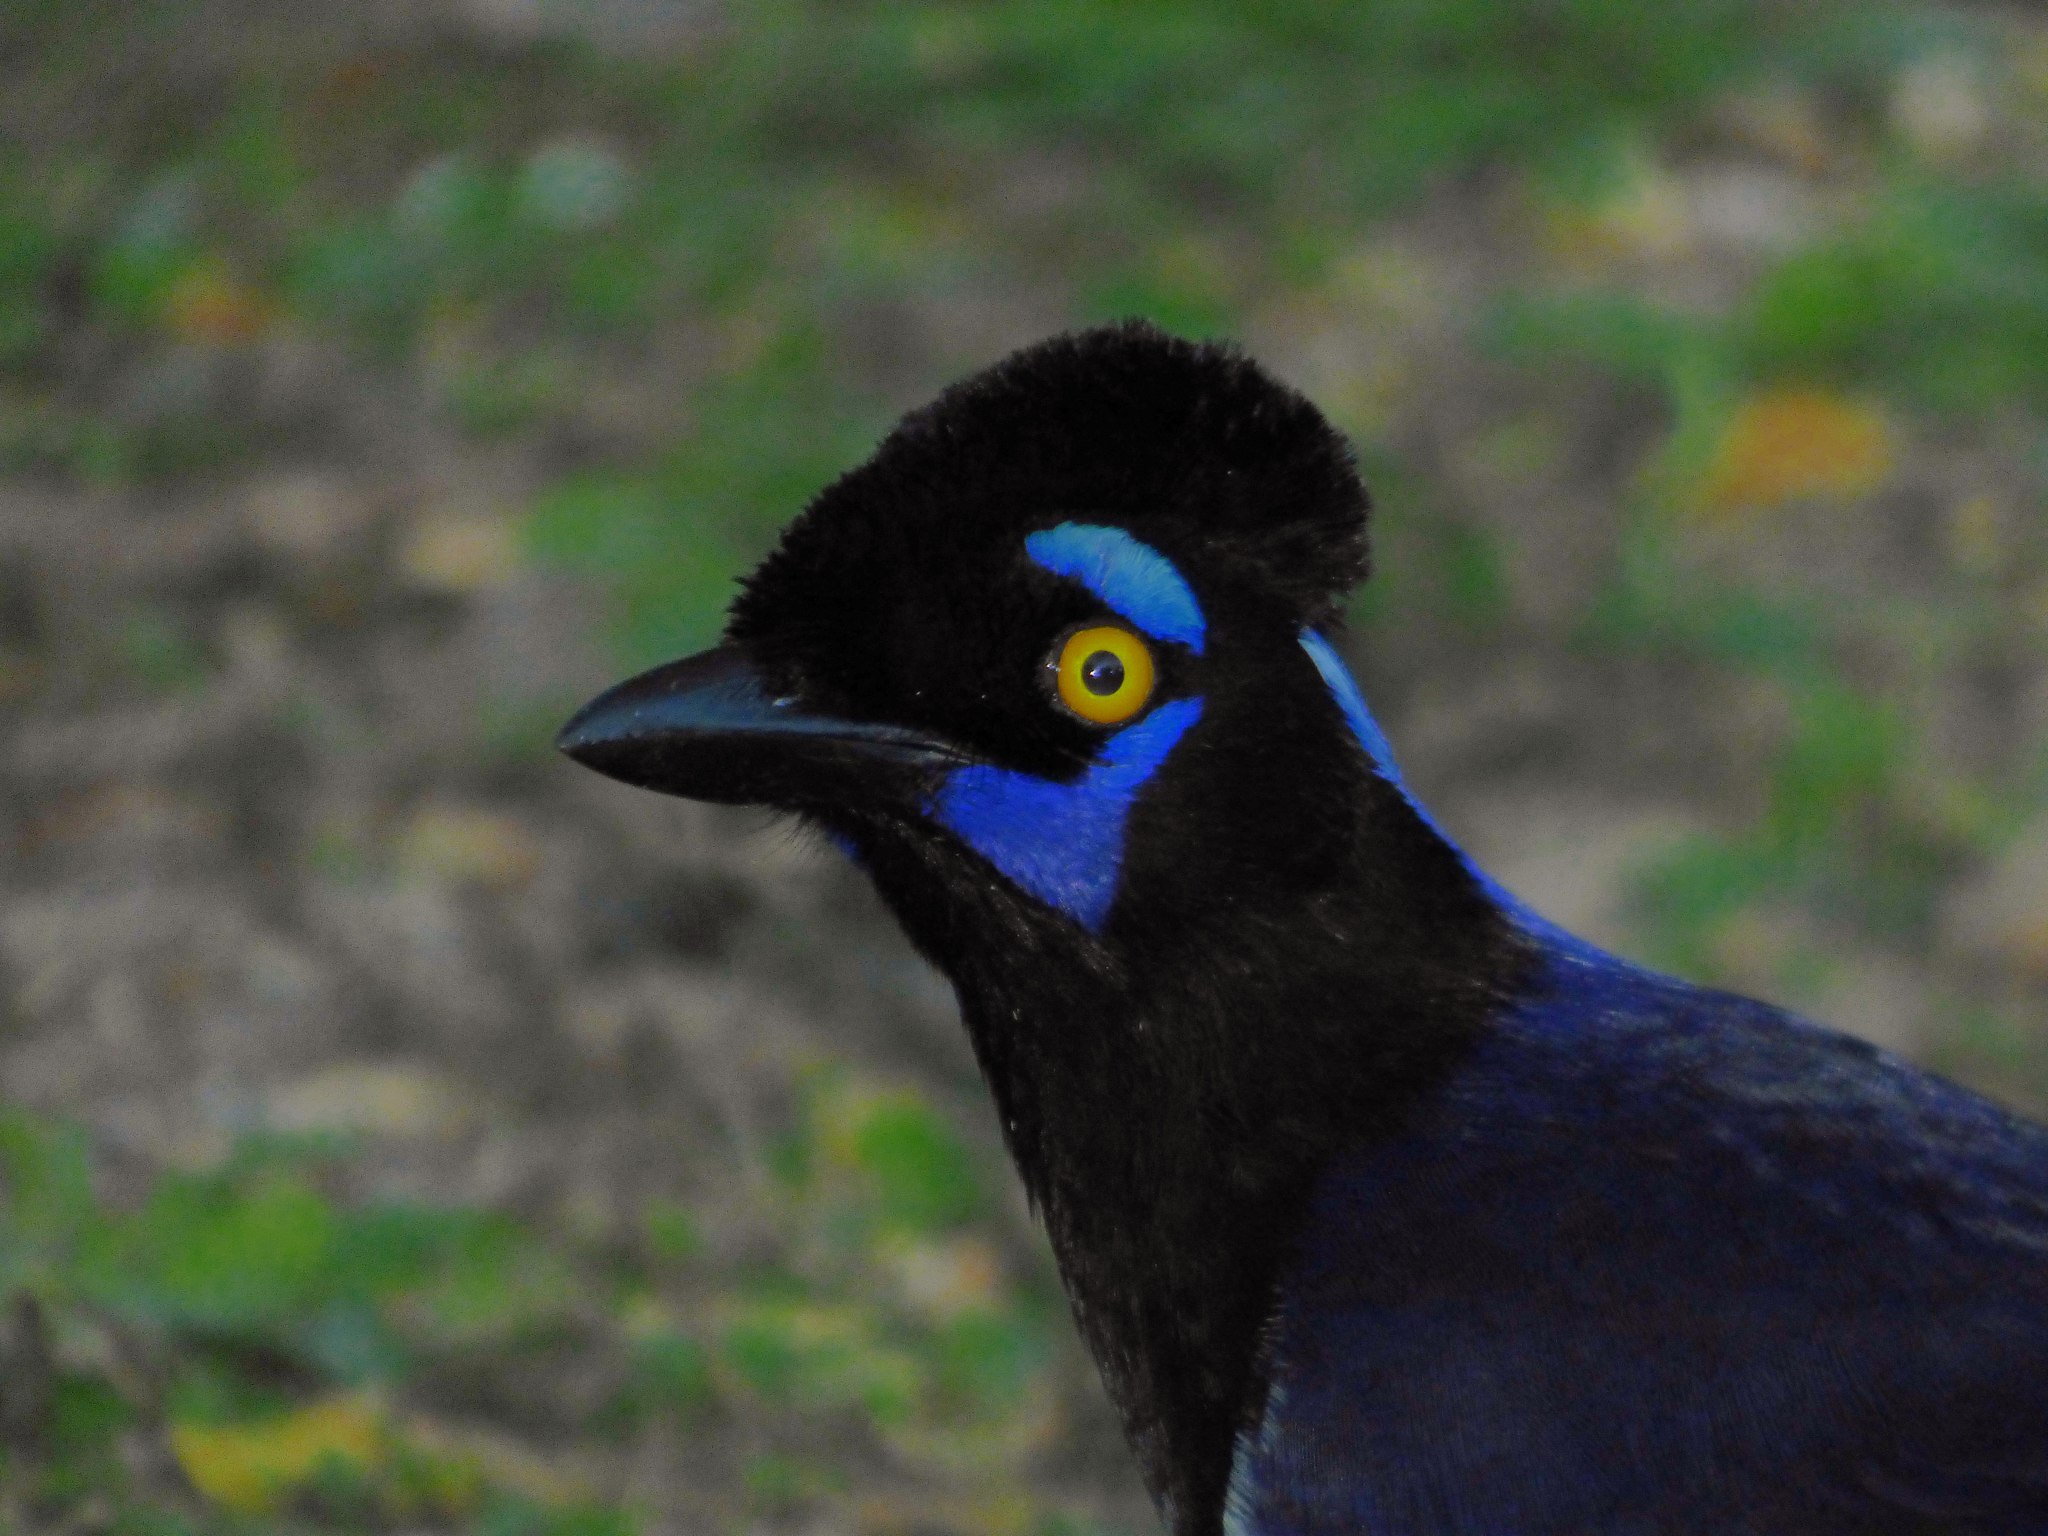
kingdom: Animalia
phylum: Chordata
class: Aves
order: Passeriformes
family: Corvidae
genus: Cyanocorax
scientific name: Cyanocorax chrysops
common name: Plush-crested jay
